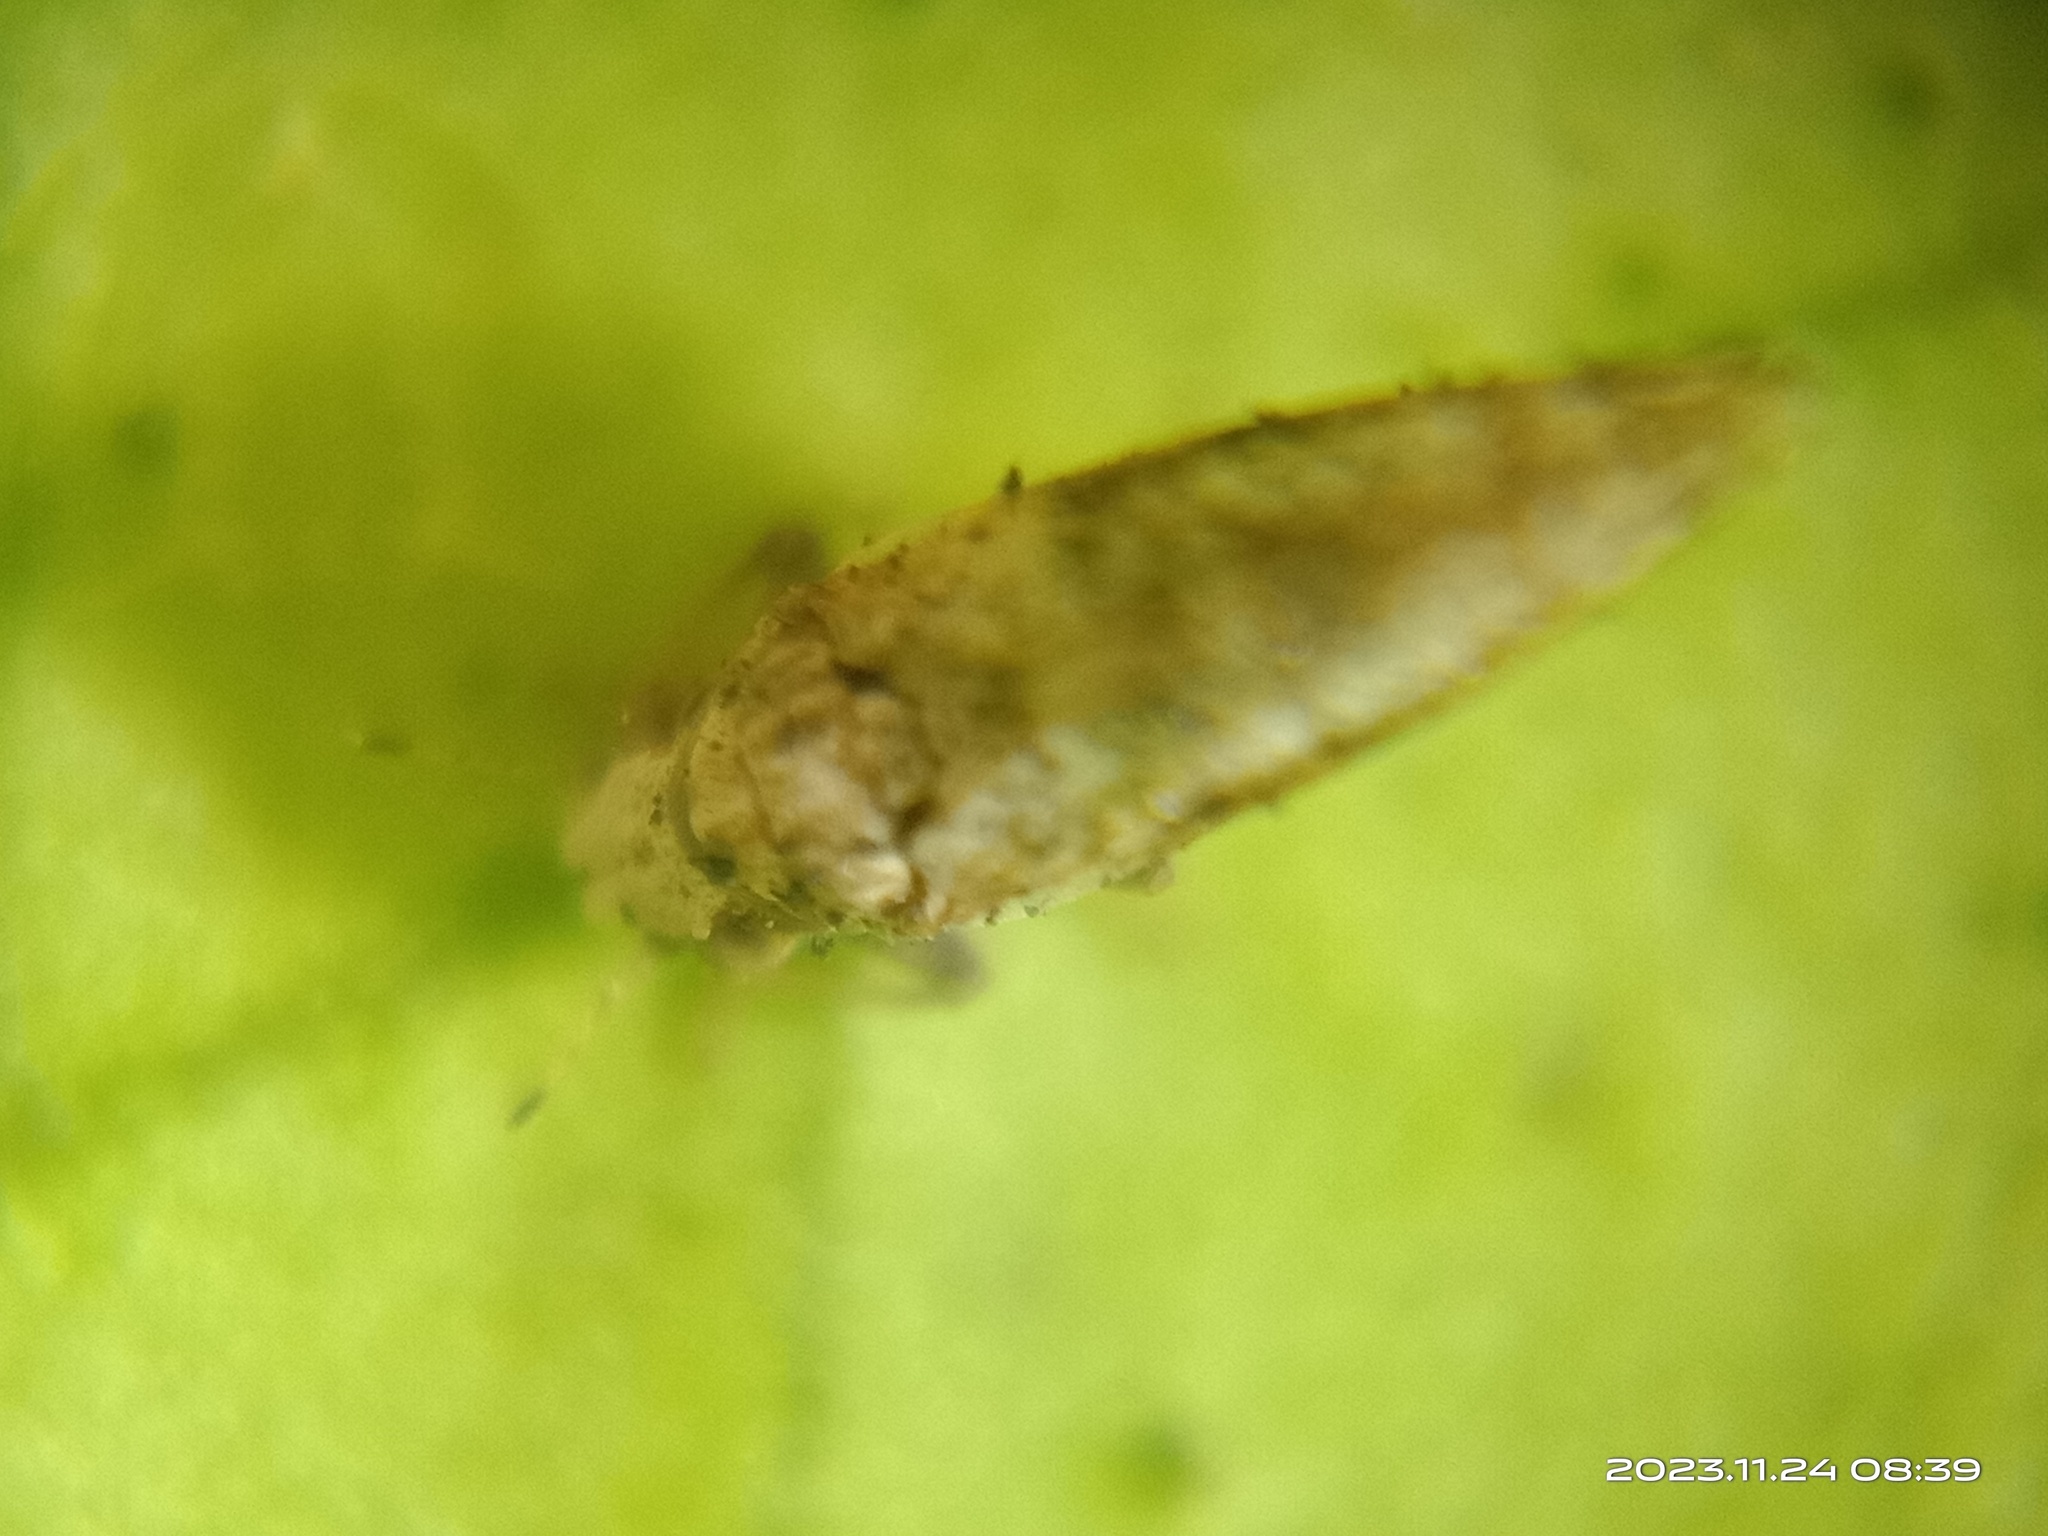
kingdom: Animalia
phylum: Arthropoda
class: Insecta
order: Hemiptera
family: Liviidae
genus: Diaphorina
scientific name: Diaphorina citri
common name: Asian citrus psyllid
